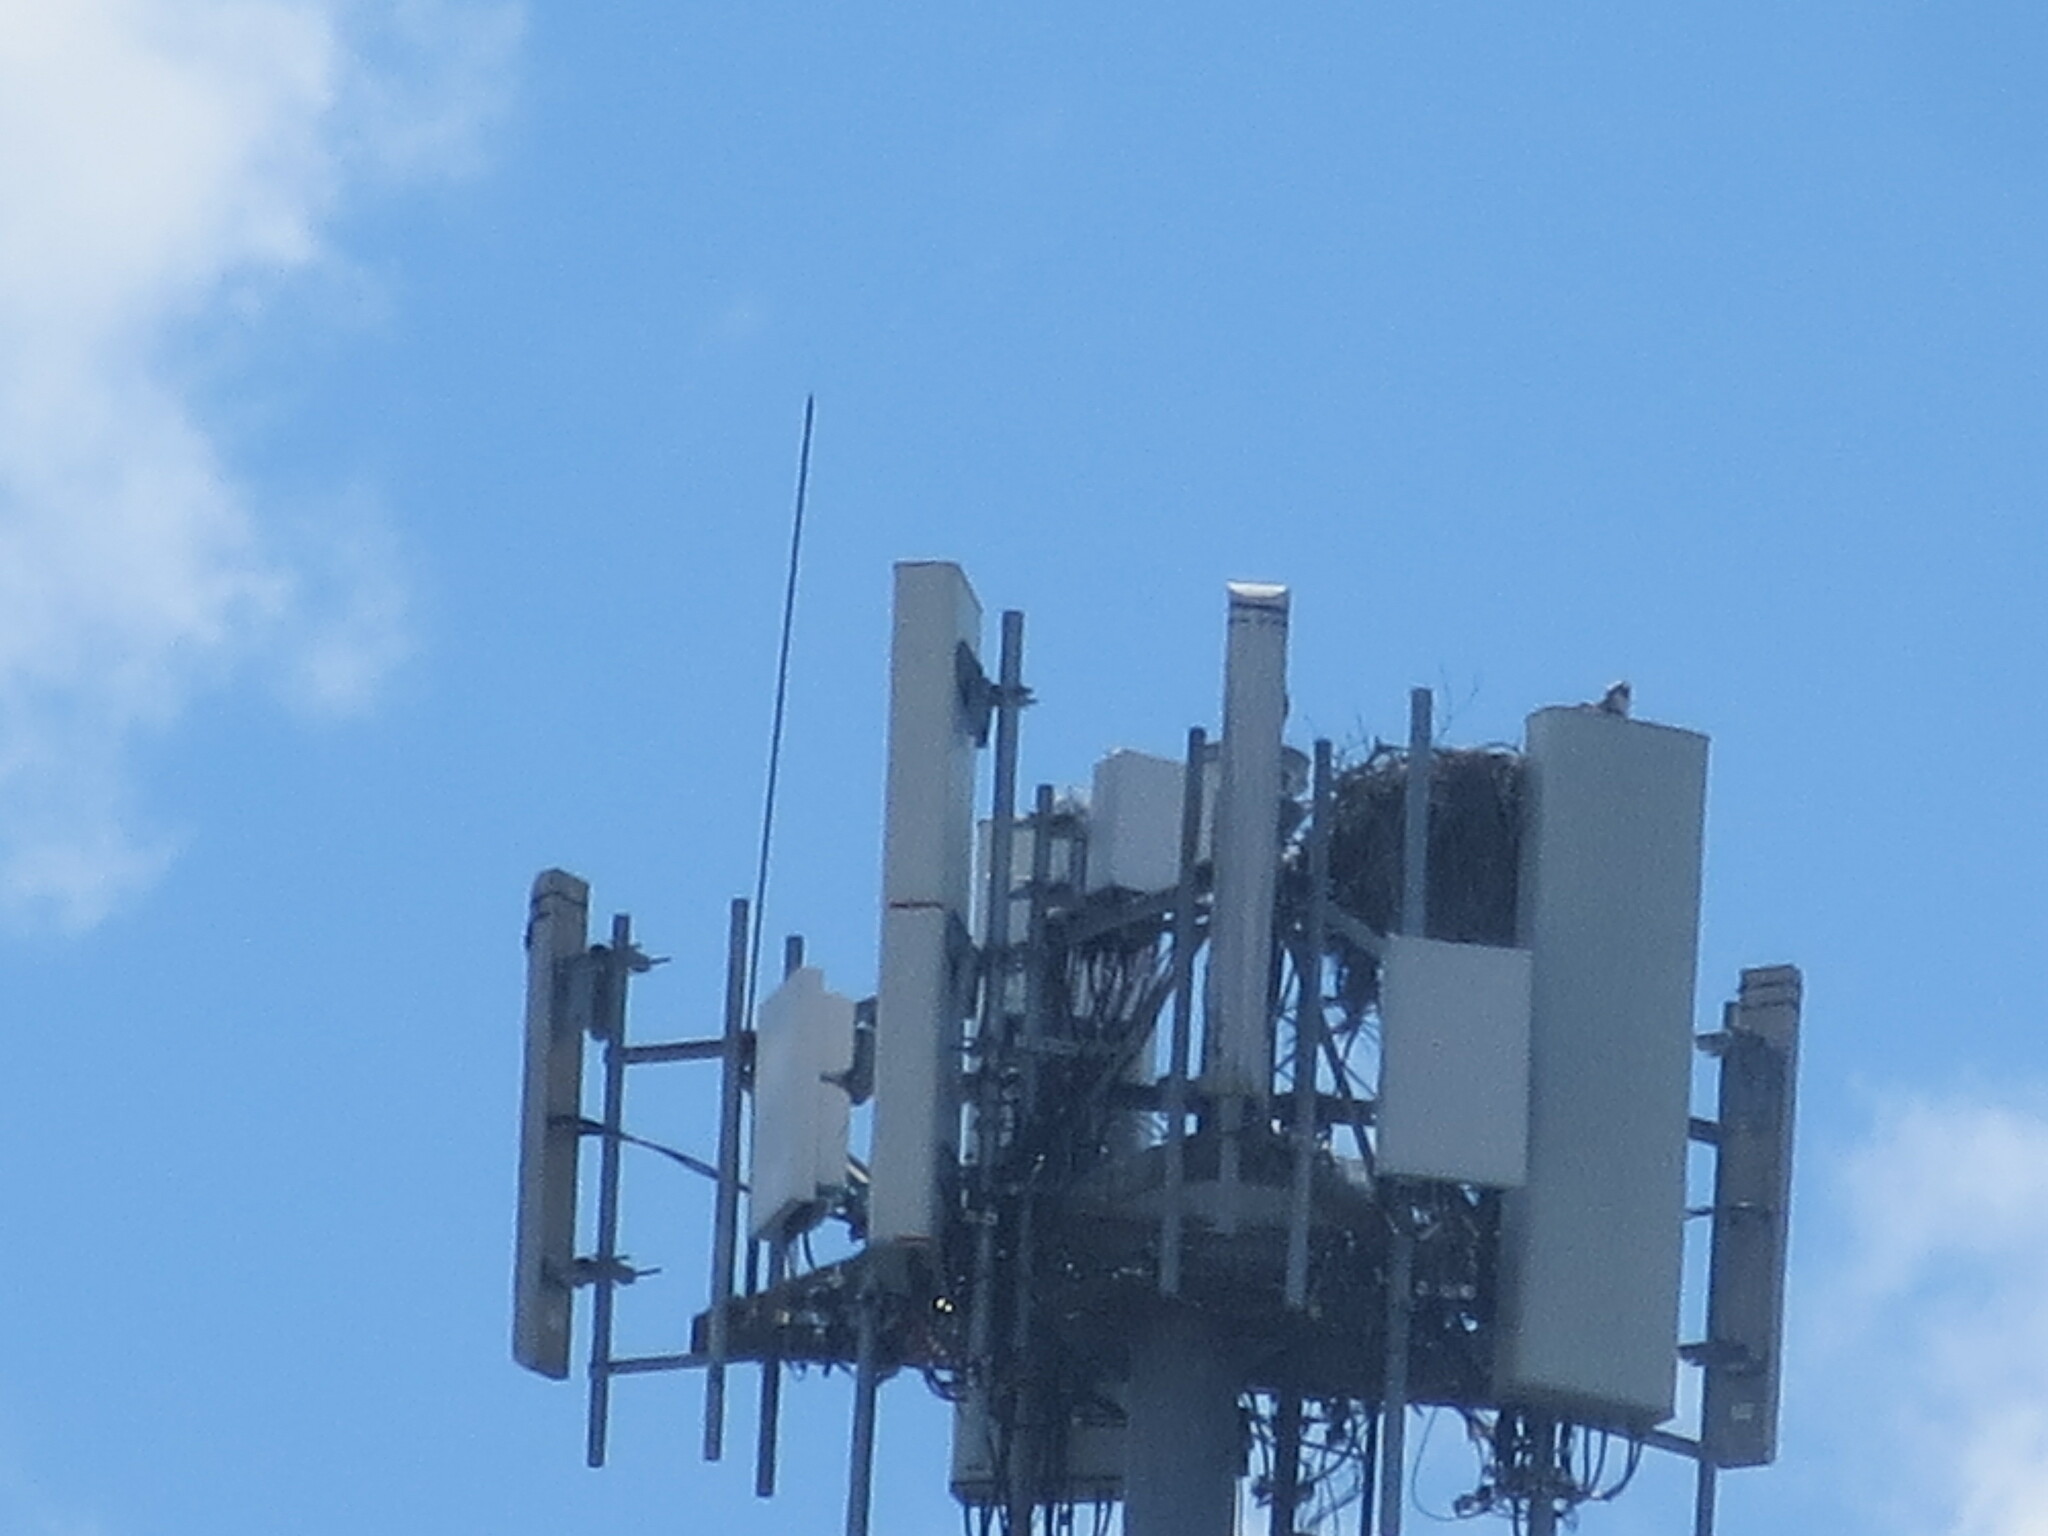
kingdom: Animalia
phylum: Chordata
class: Aves
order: Accipitriformes
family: Pandionidae
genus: Pandion
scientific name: Pandion haliaetus
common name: Osprey
